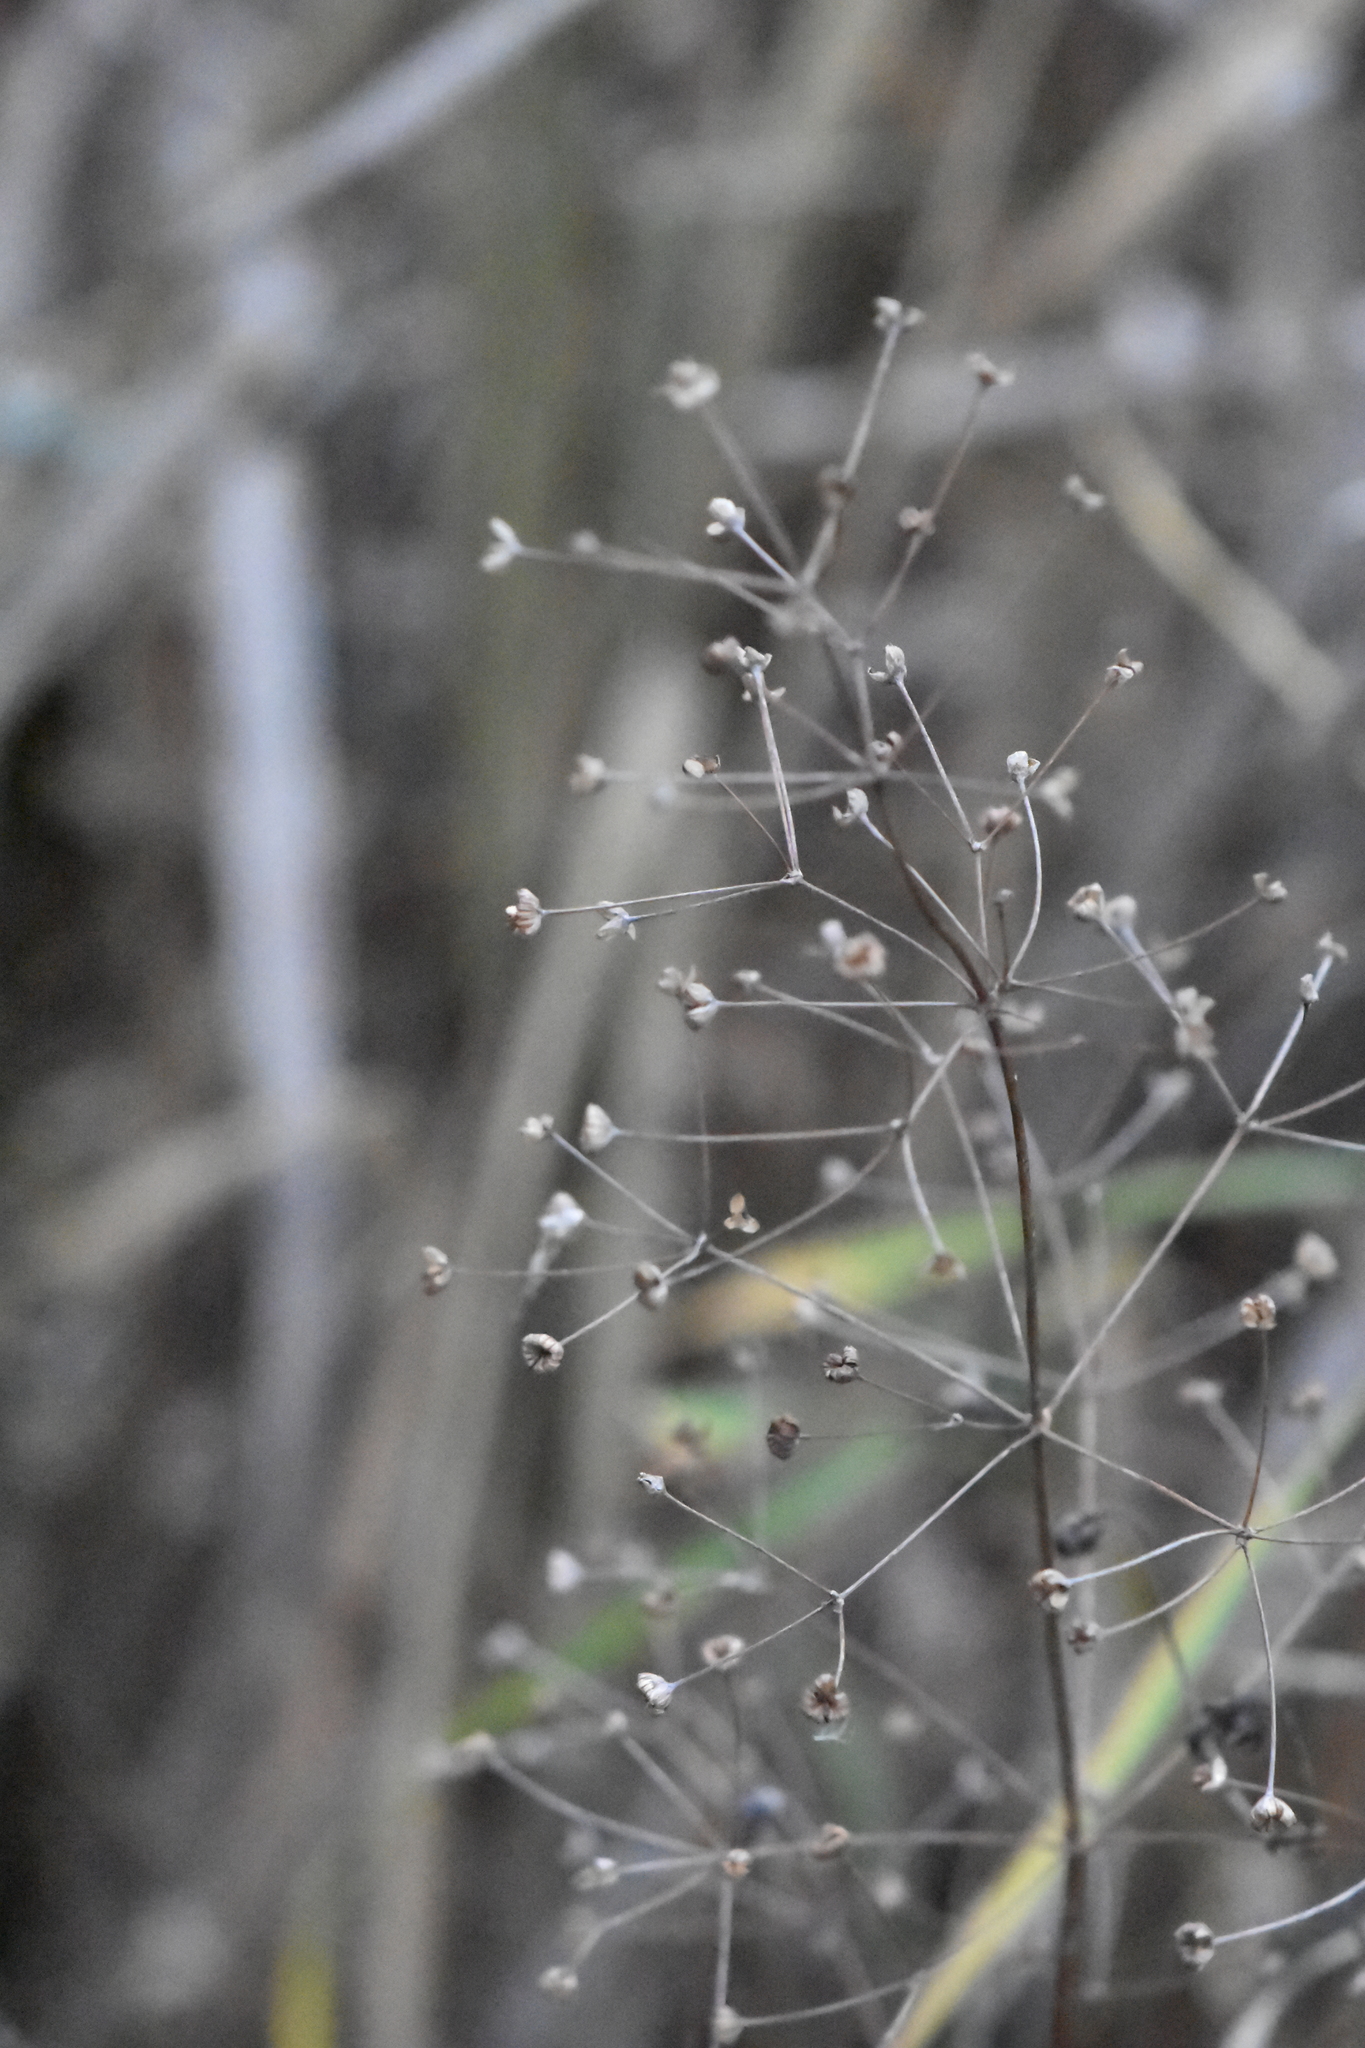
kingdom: Plantae
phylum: Tracheophyta
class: Liliopsida
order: Alismatales
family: Alismataceae
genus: Alisma
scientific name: Alisma plantago-aquatica
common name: Water-plantain
